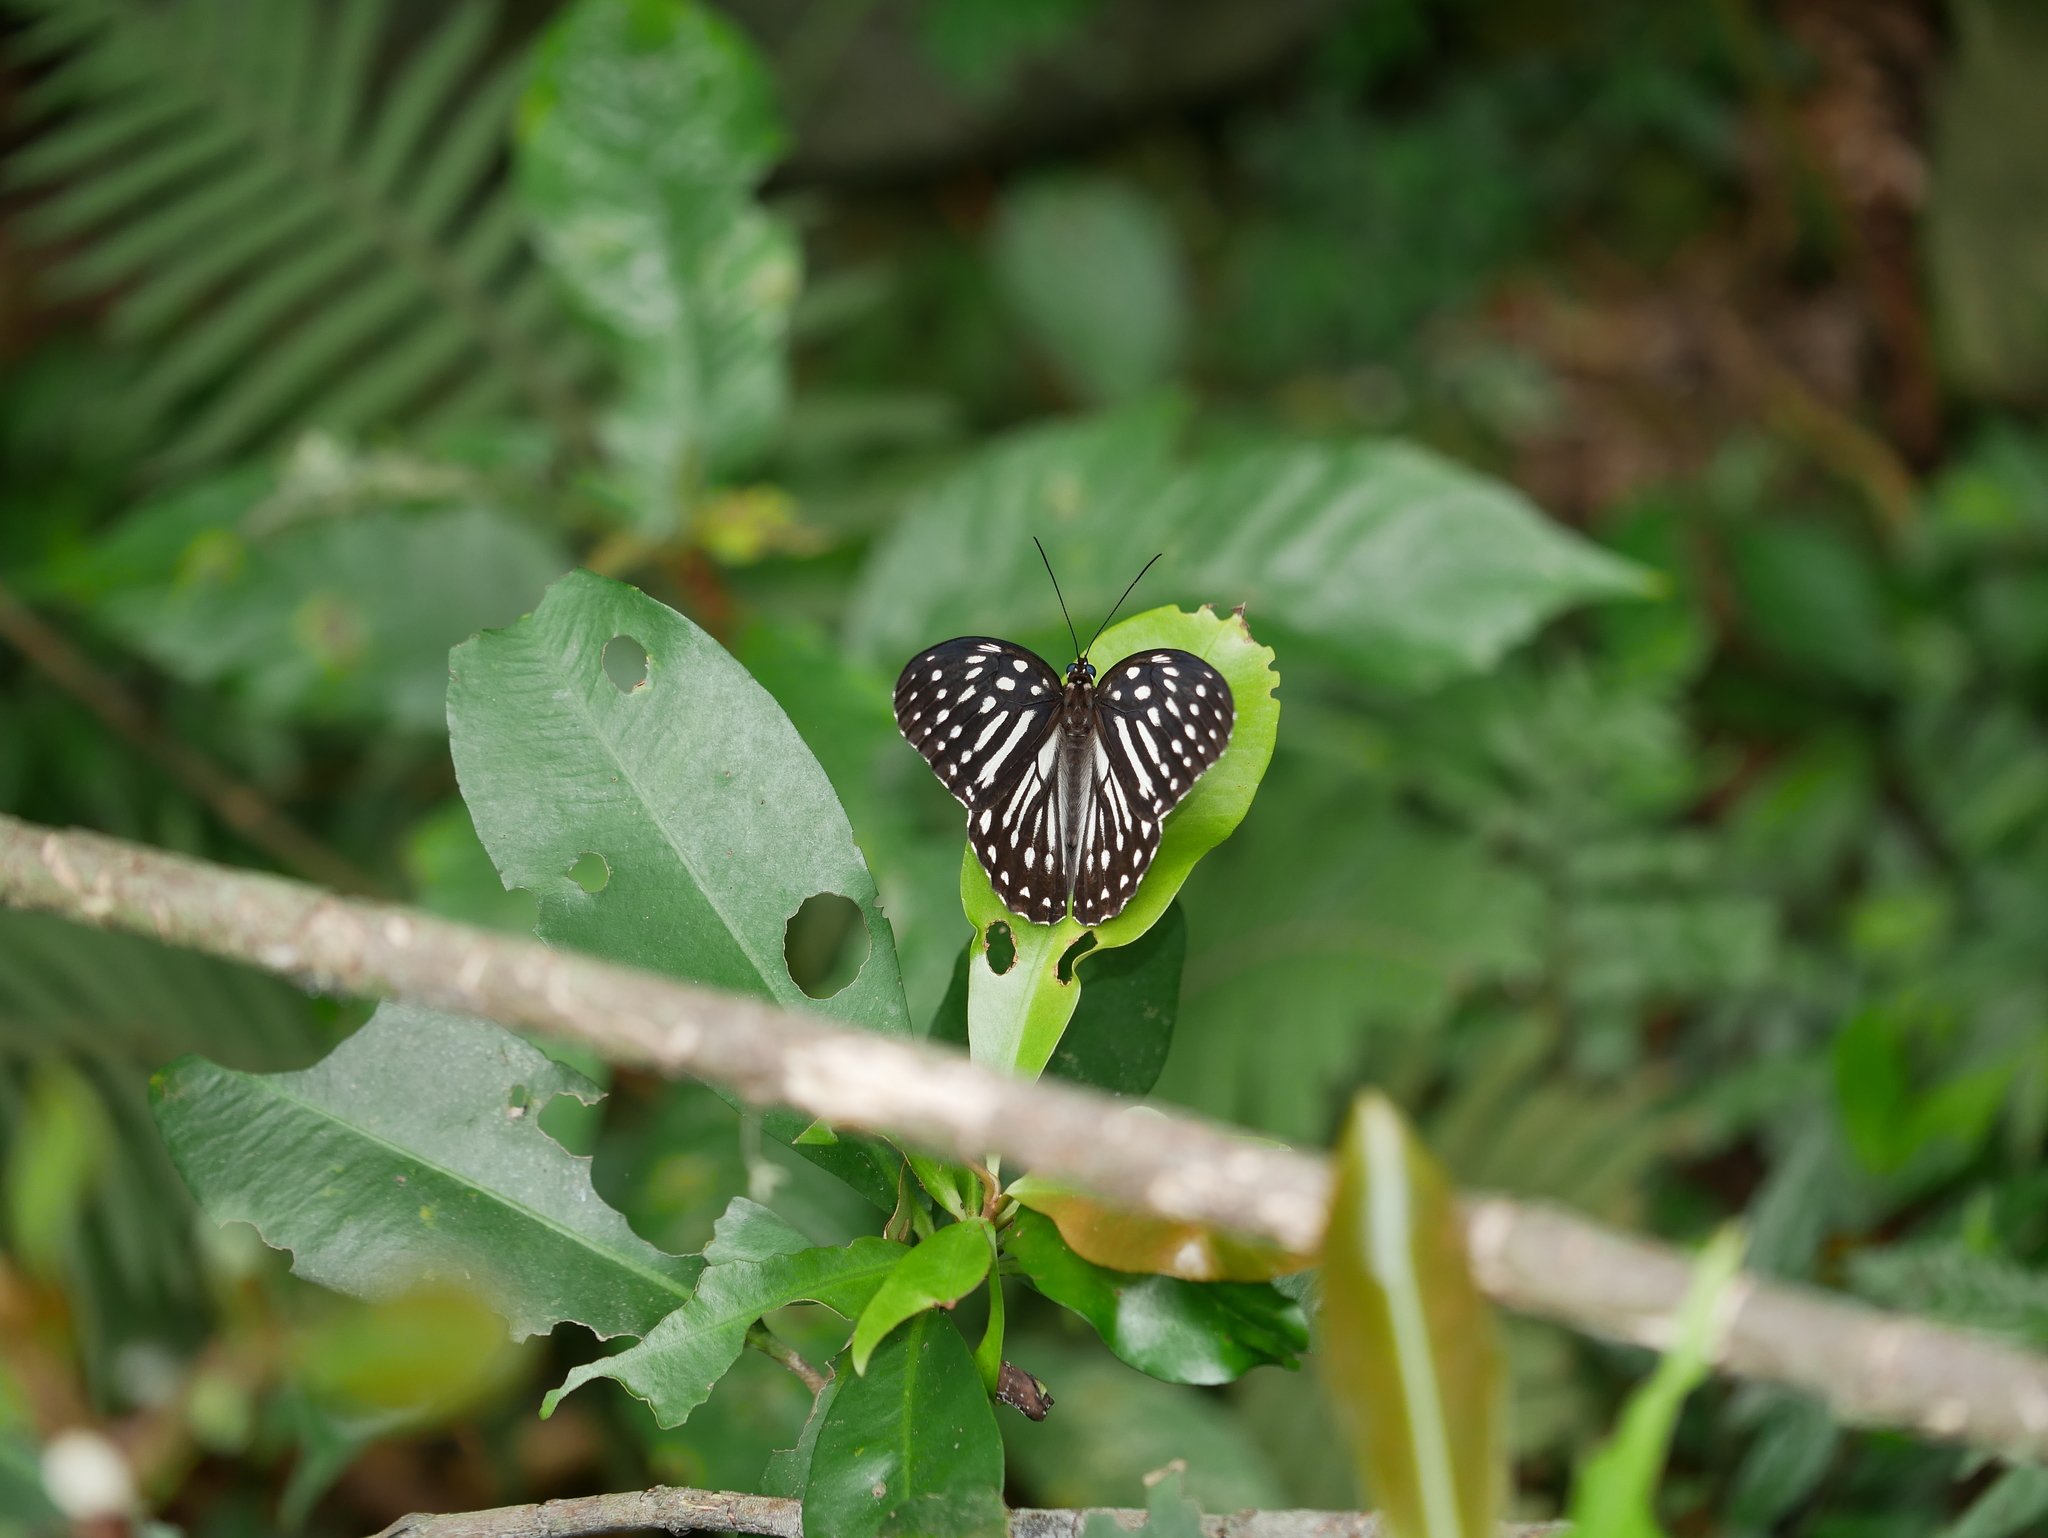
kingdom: Animalia
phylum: Arthropoda
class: Insecta
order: Lepidoptera
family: Nymphalidae
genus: Penthema
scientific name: Penthema formosanum
